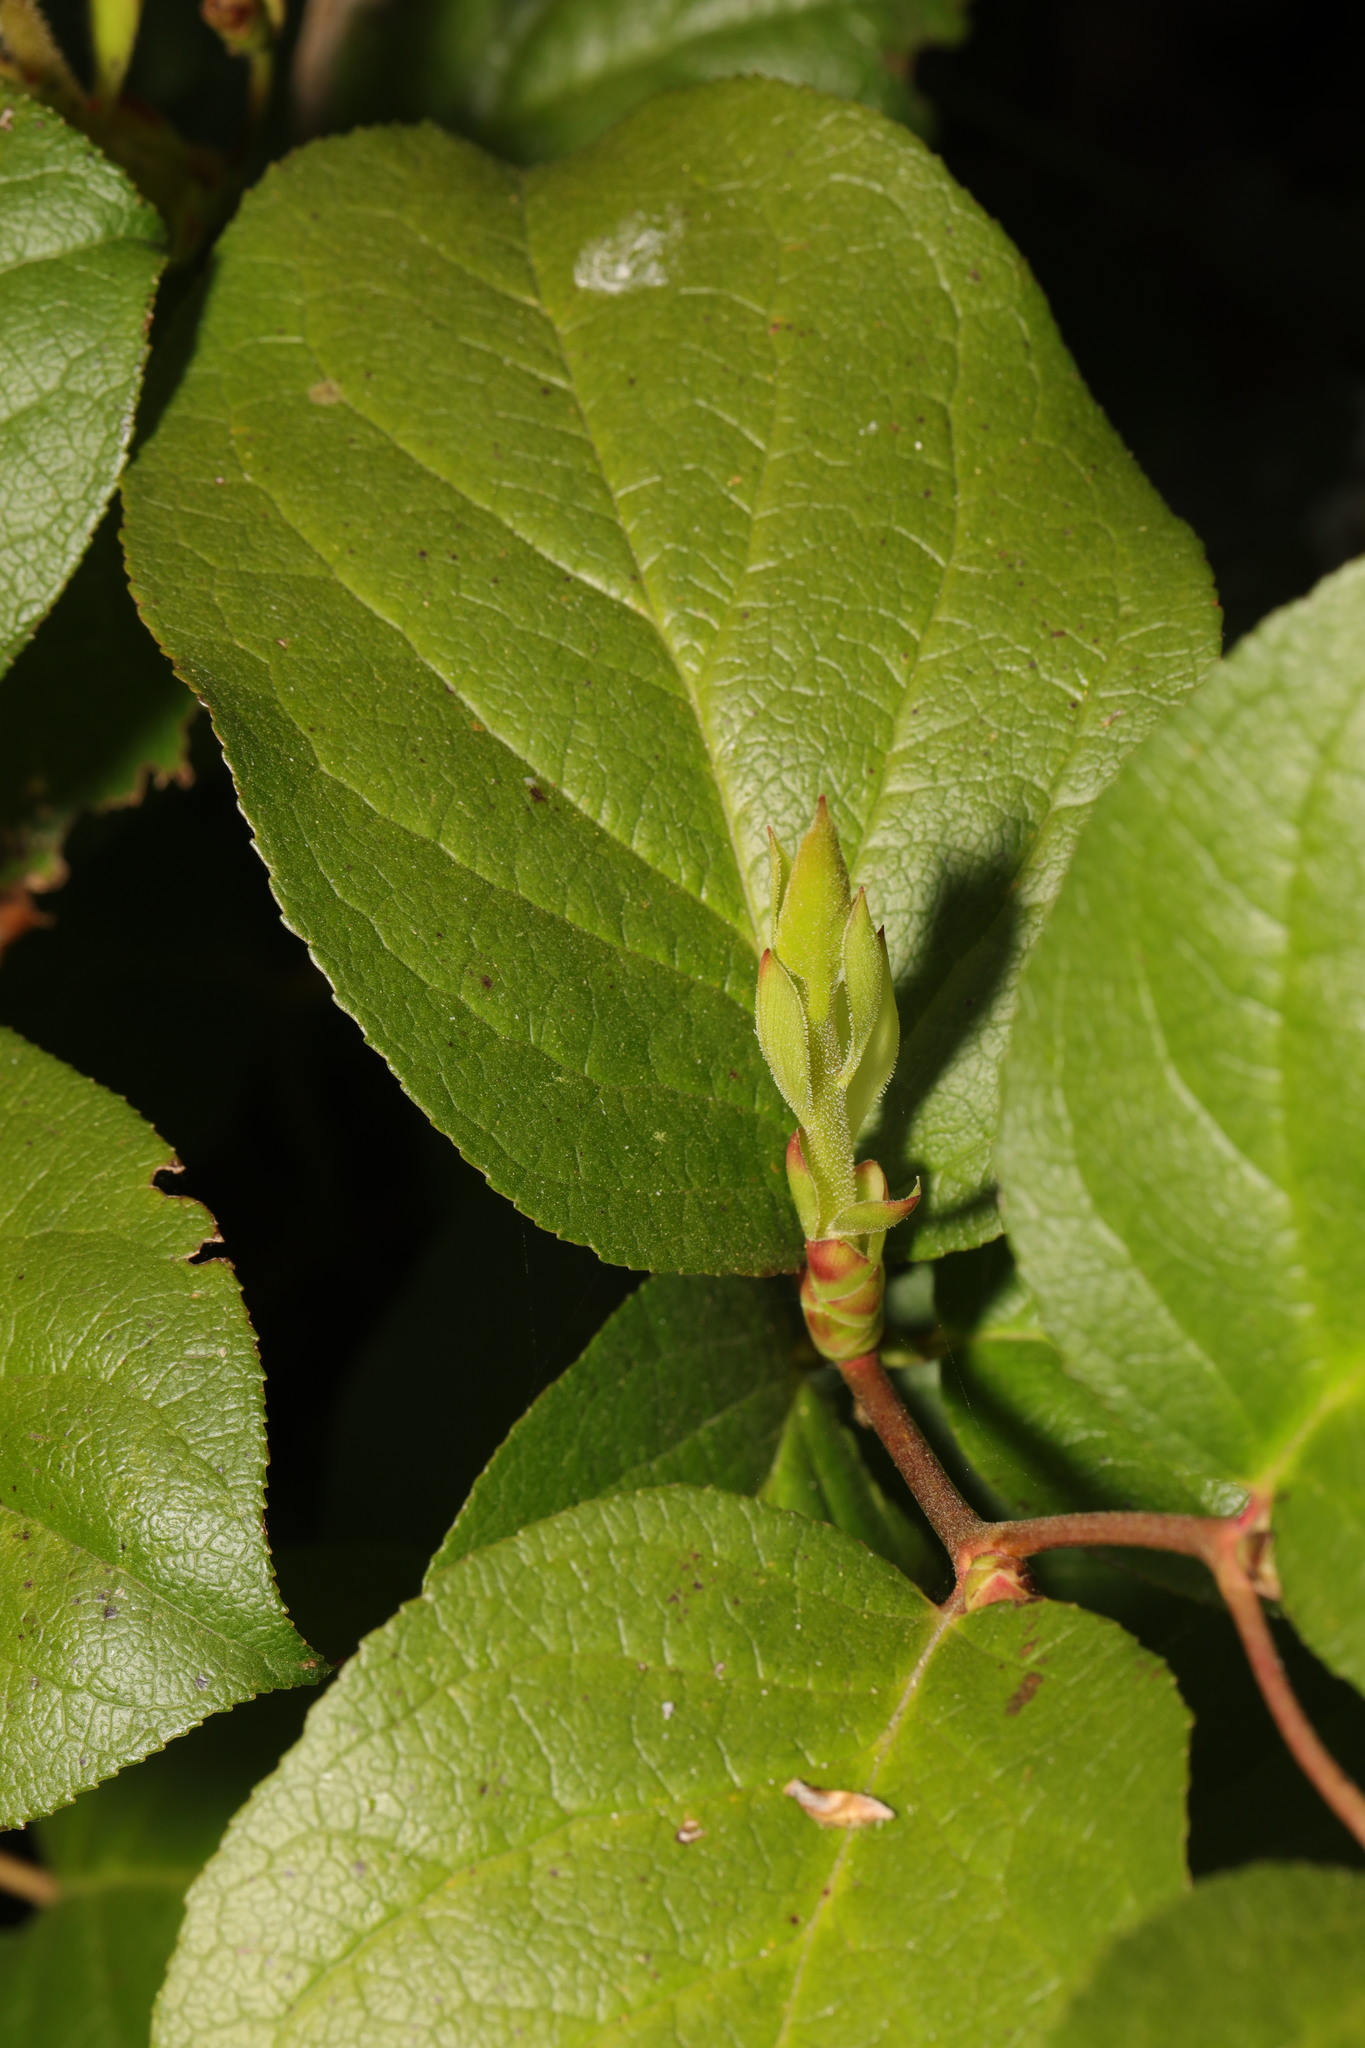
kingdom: Plantae
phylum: Tracheophyta
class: Magnoliopsida
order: Ericales
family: Ericaceae
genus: Gaultheria
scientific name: Gaultheria shallon
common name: Shallon
